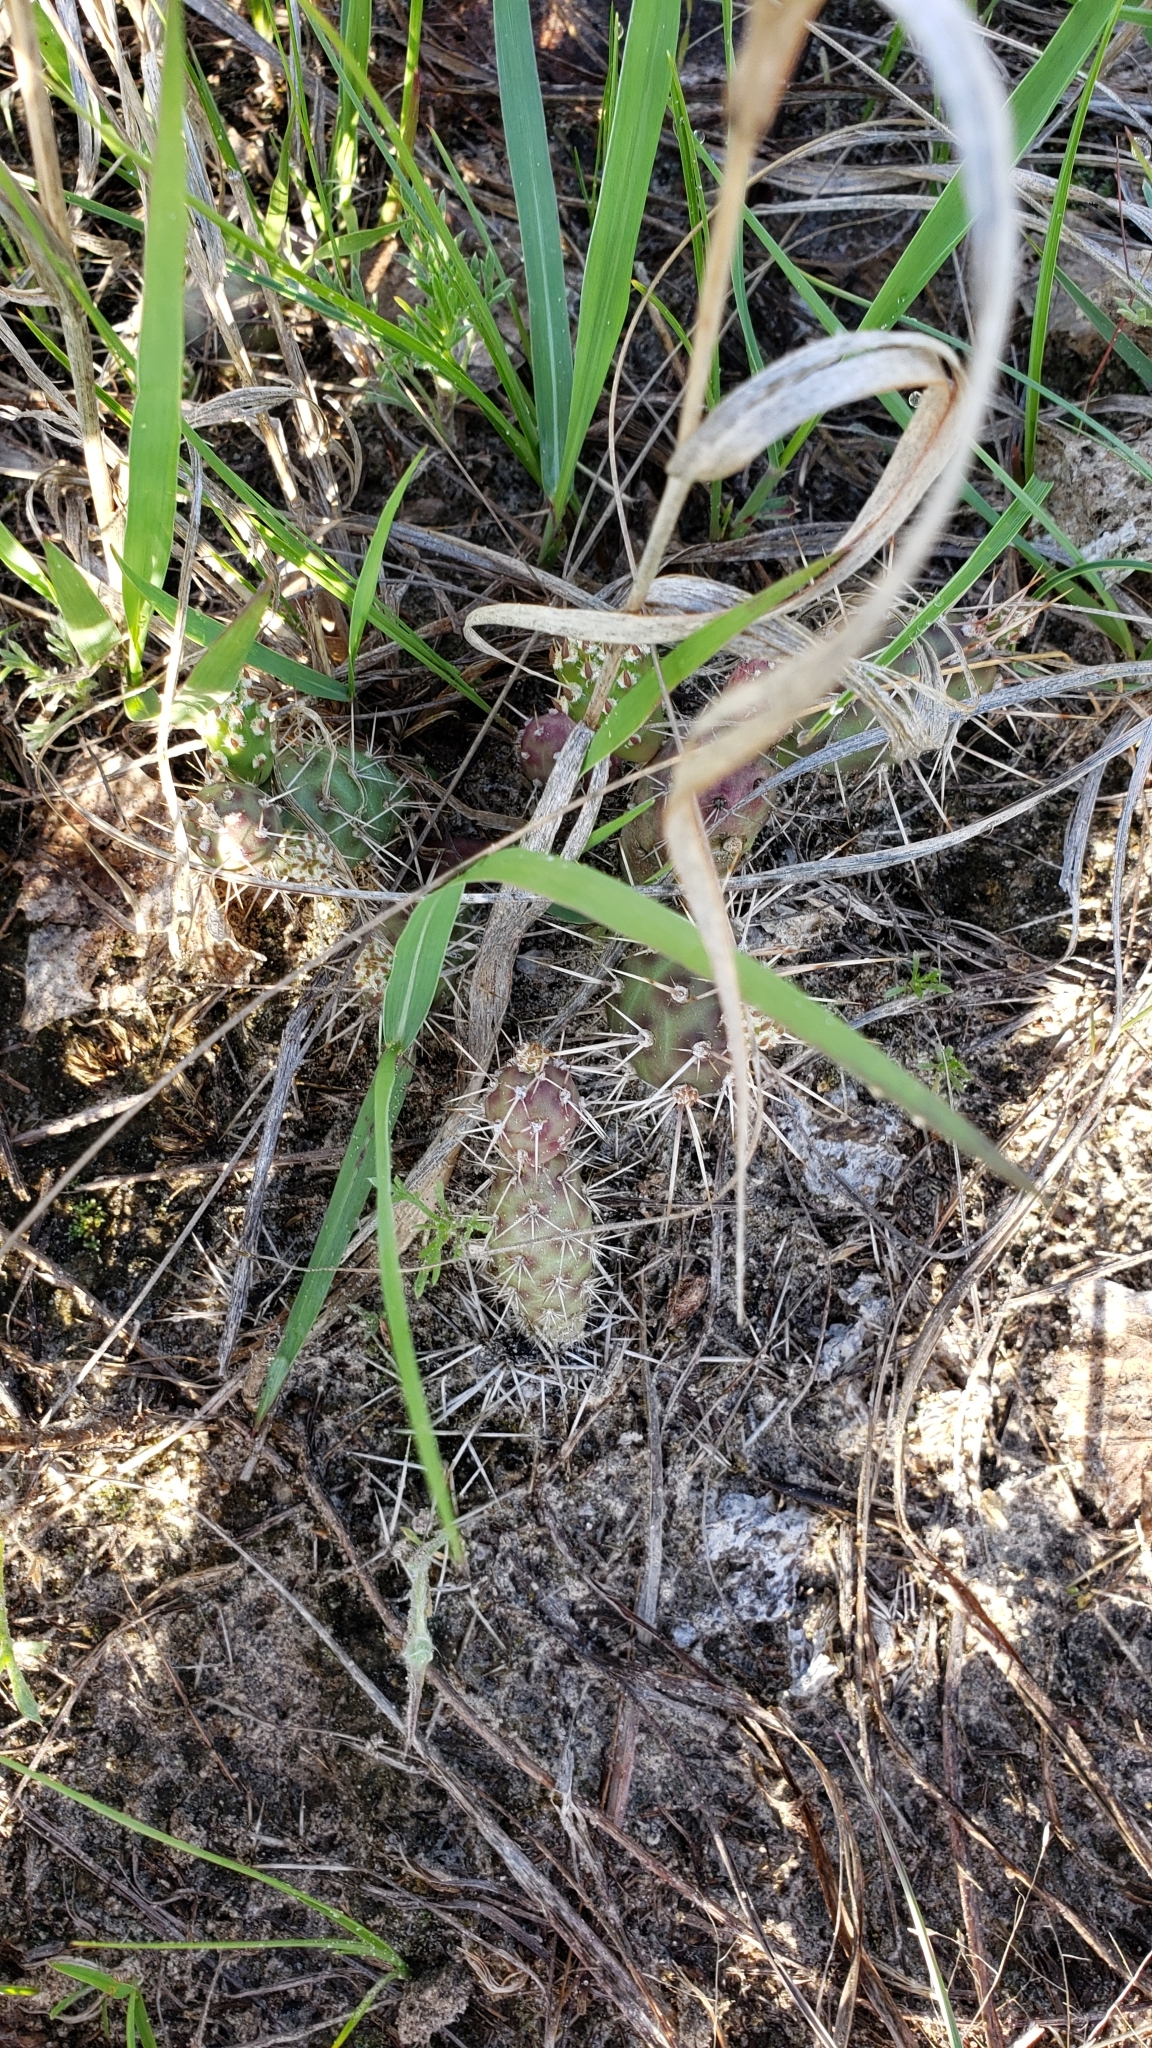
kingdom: Plantae
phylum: Tracheophyta
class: Magnoliopsida
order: Caryophyllales
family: Cactaceae
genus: Opuntia
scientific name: Opuntia fragilis
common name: Brittle cactus
